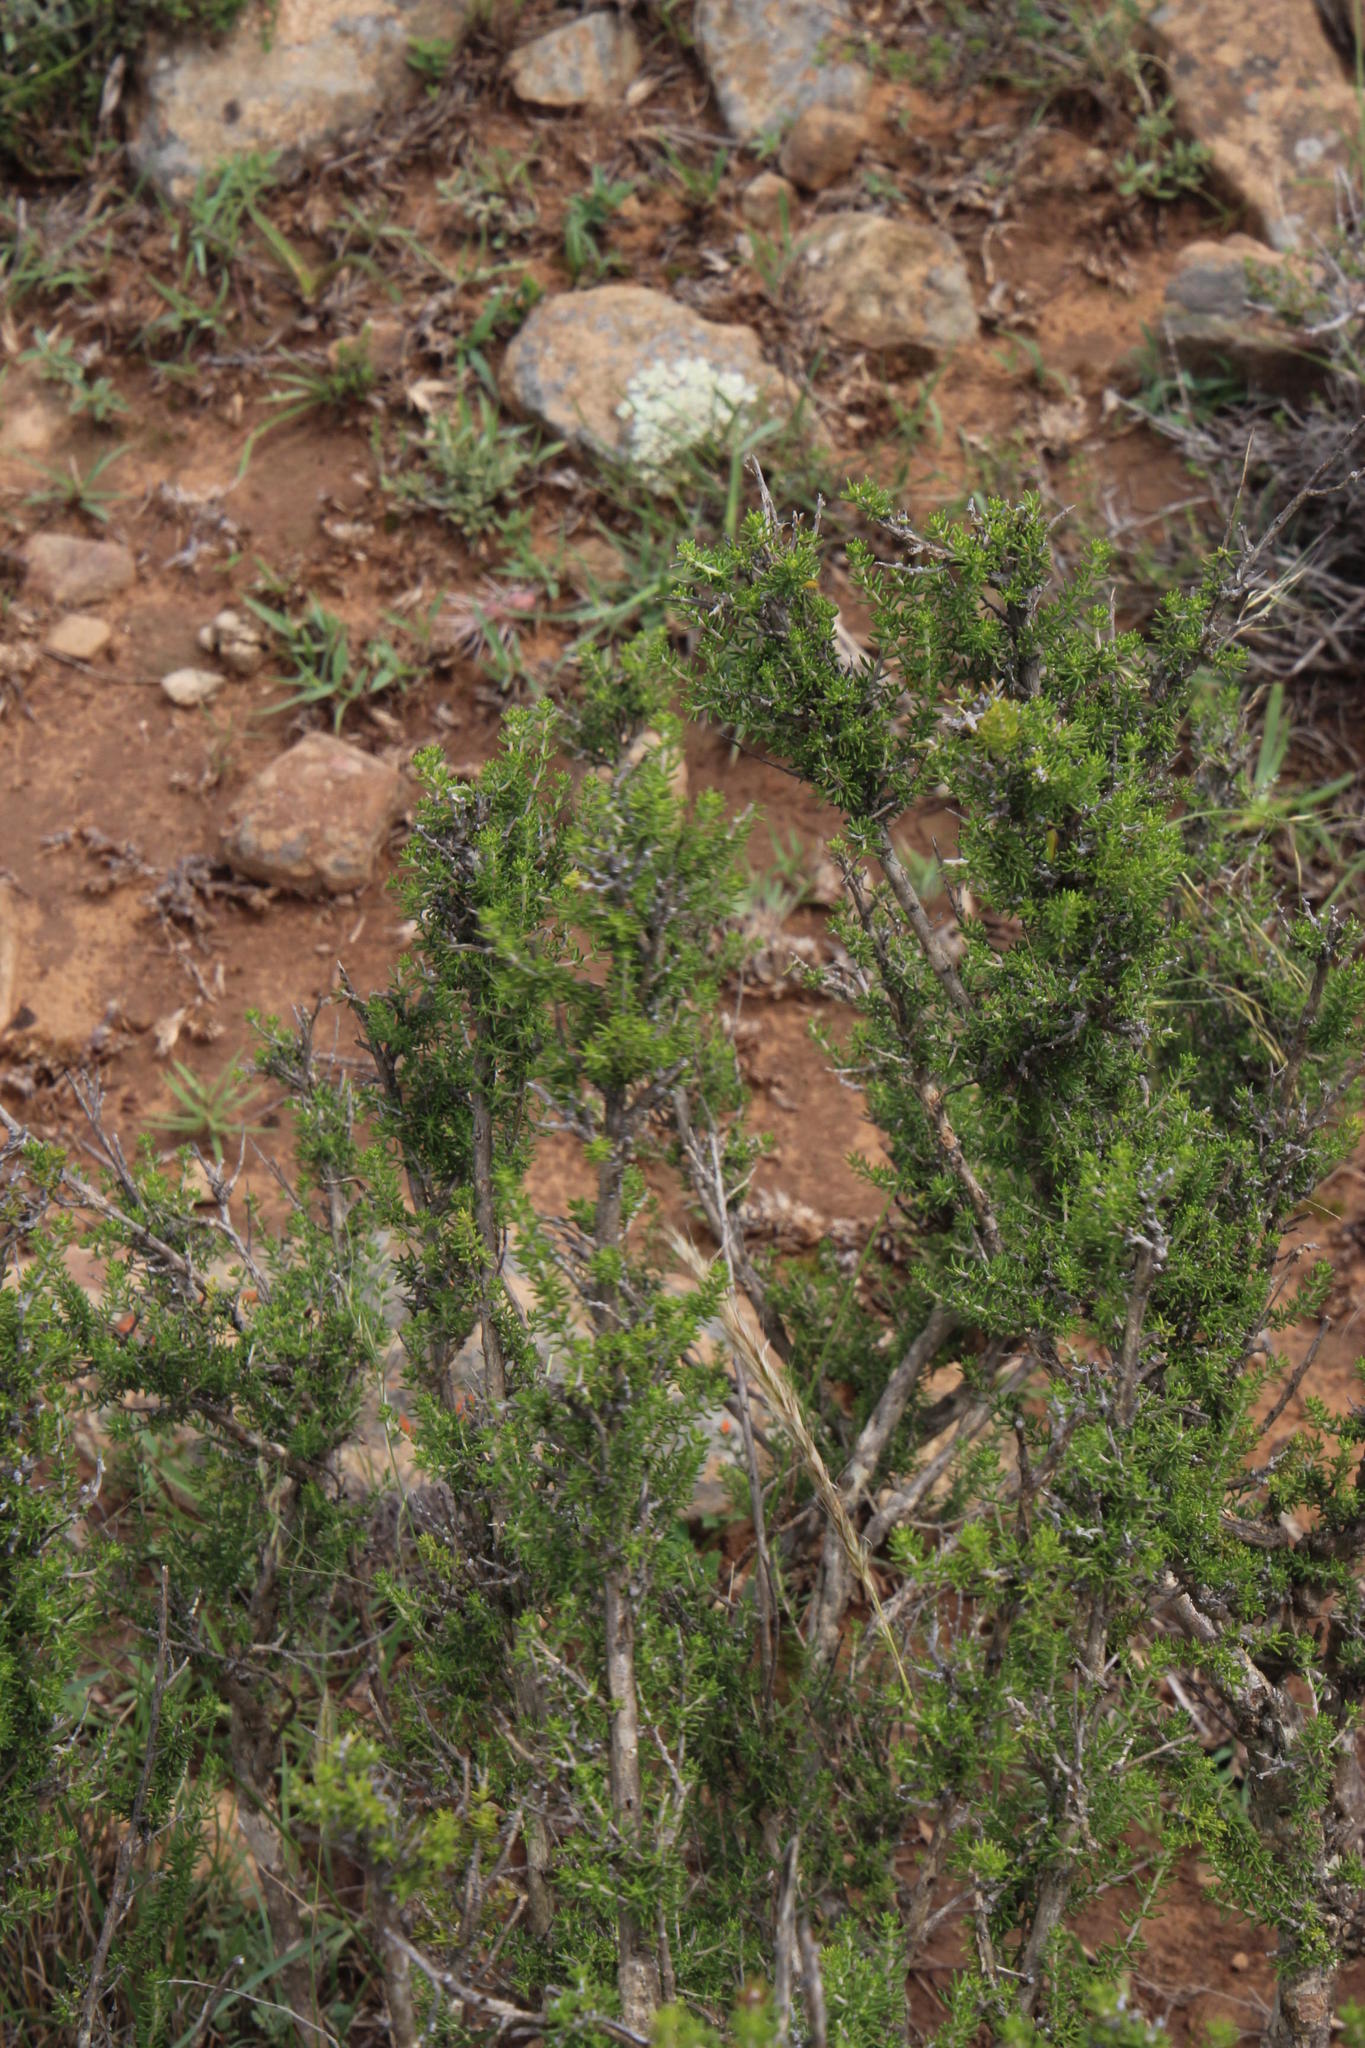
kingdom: Plantae
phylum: Tracheophyta
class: Magnoliopsida
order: Fabales
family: Fabaceae
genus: Aspalathus
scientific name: Aspalathus subtingens
